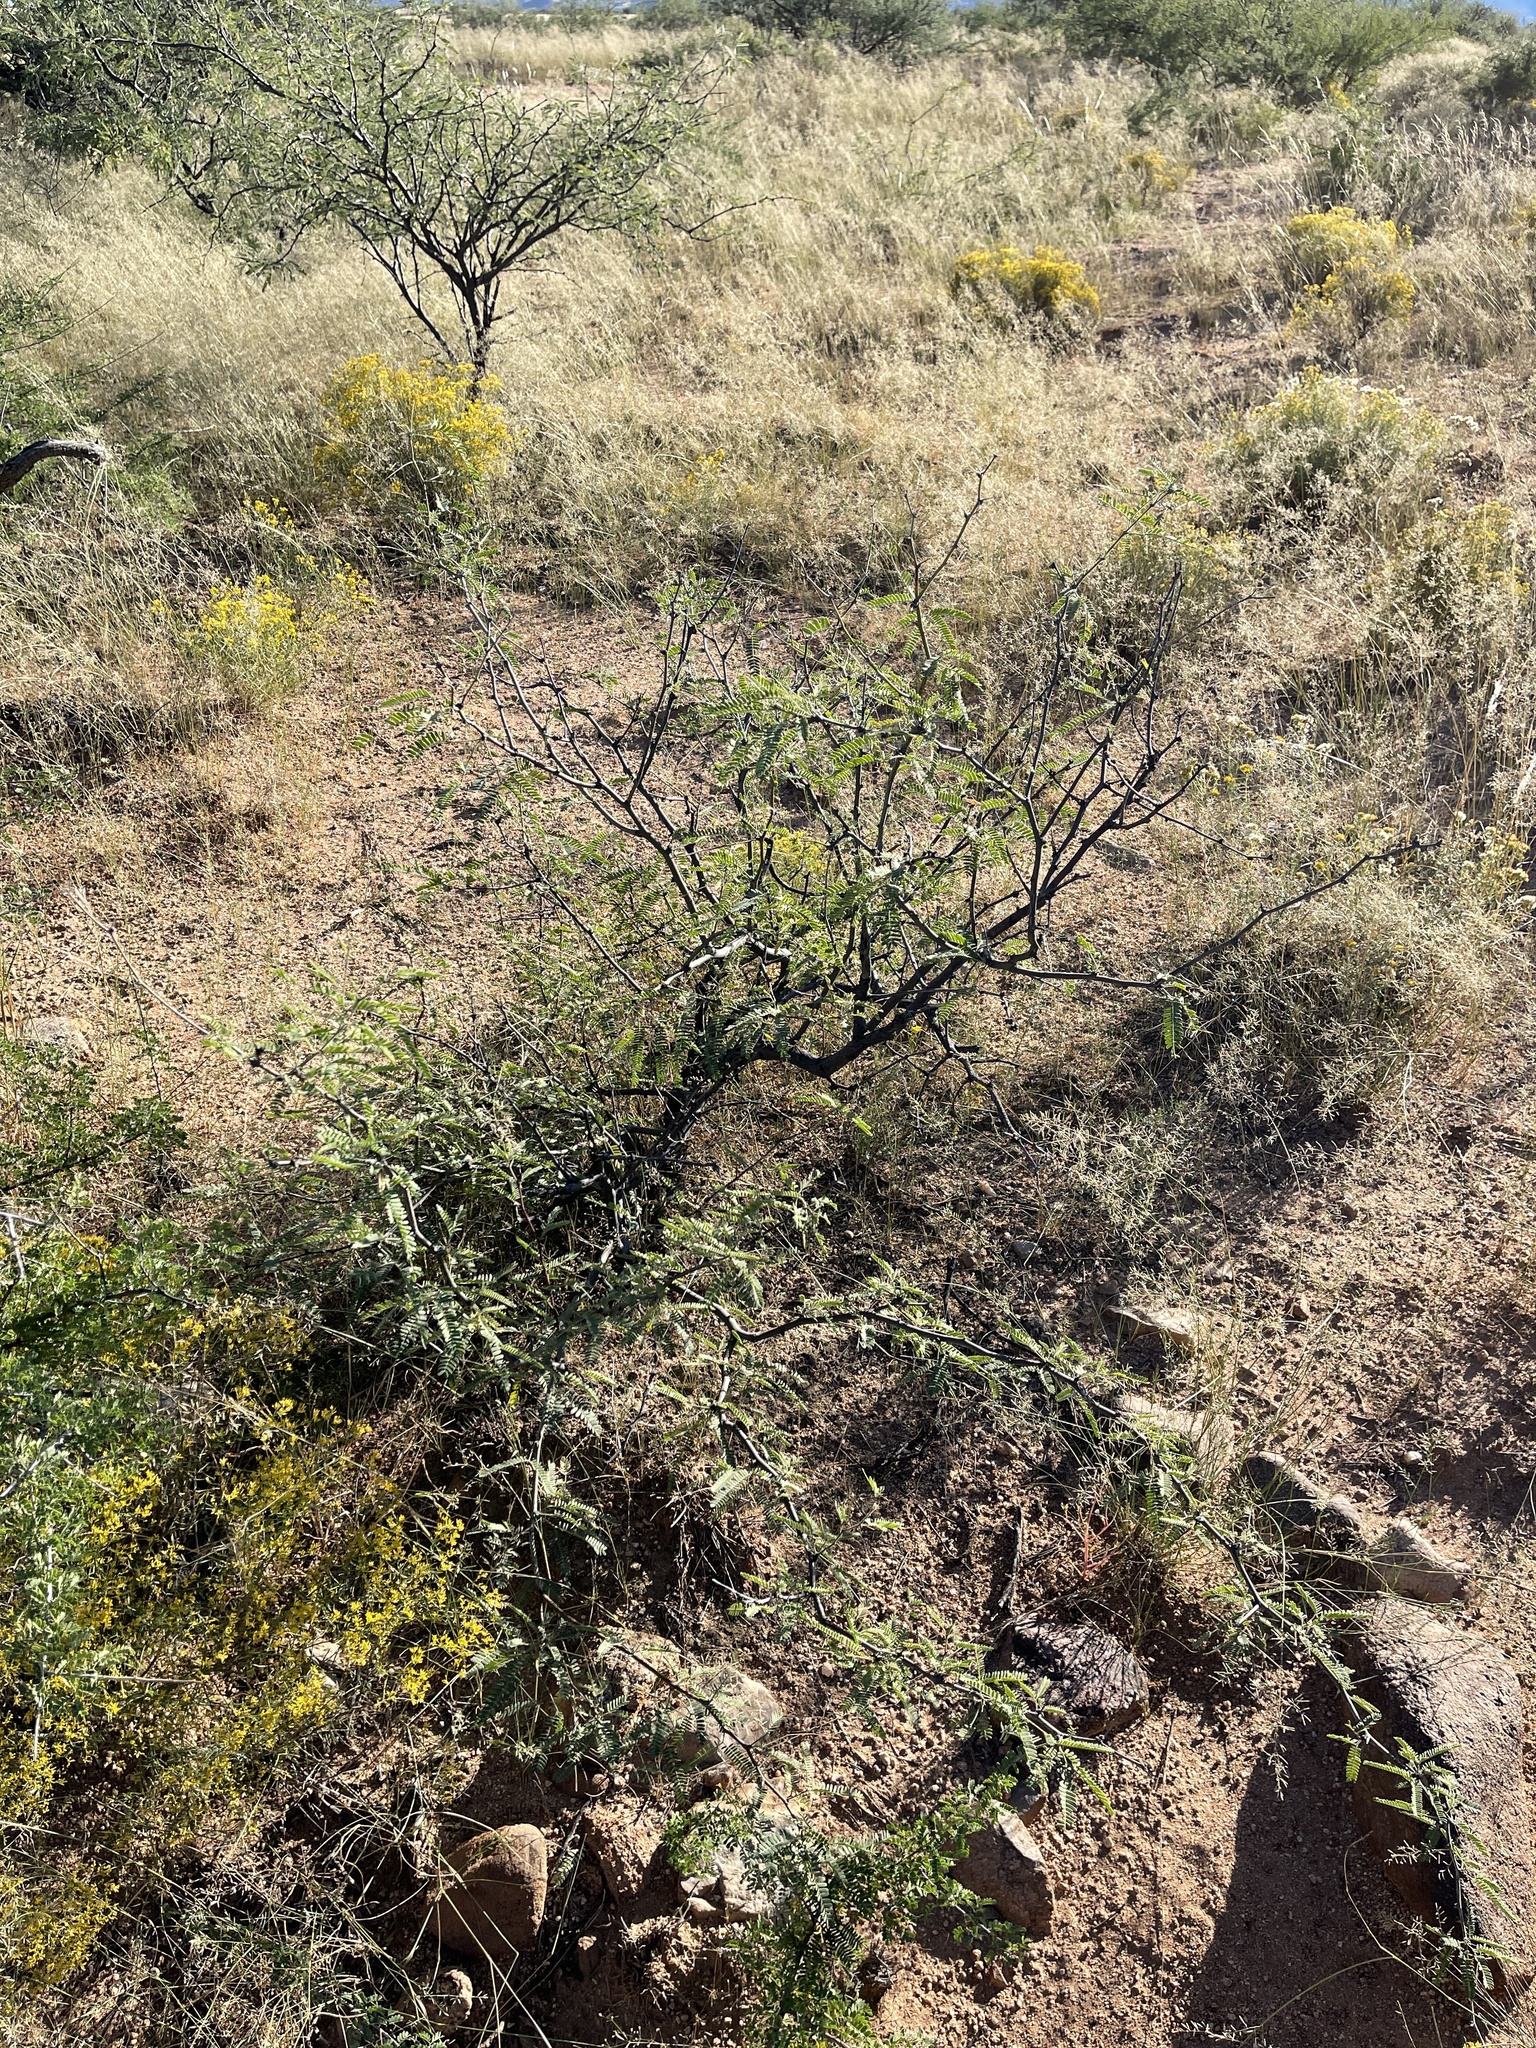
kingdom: Plantae
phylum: Tracheophyta
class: Magnoliopsida
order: Fabales
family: Fabaceae
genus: Prosopis
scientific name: Prosopis velutina
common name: Velvet mesquite
